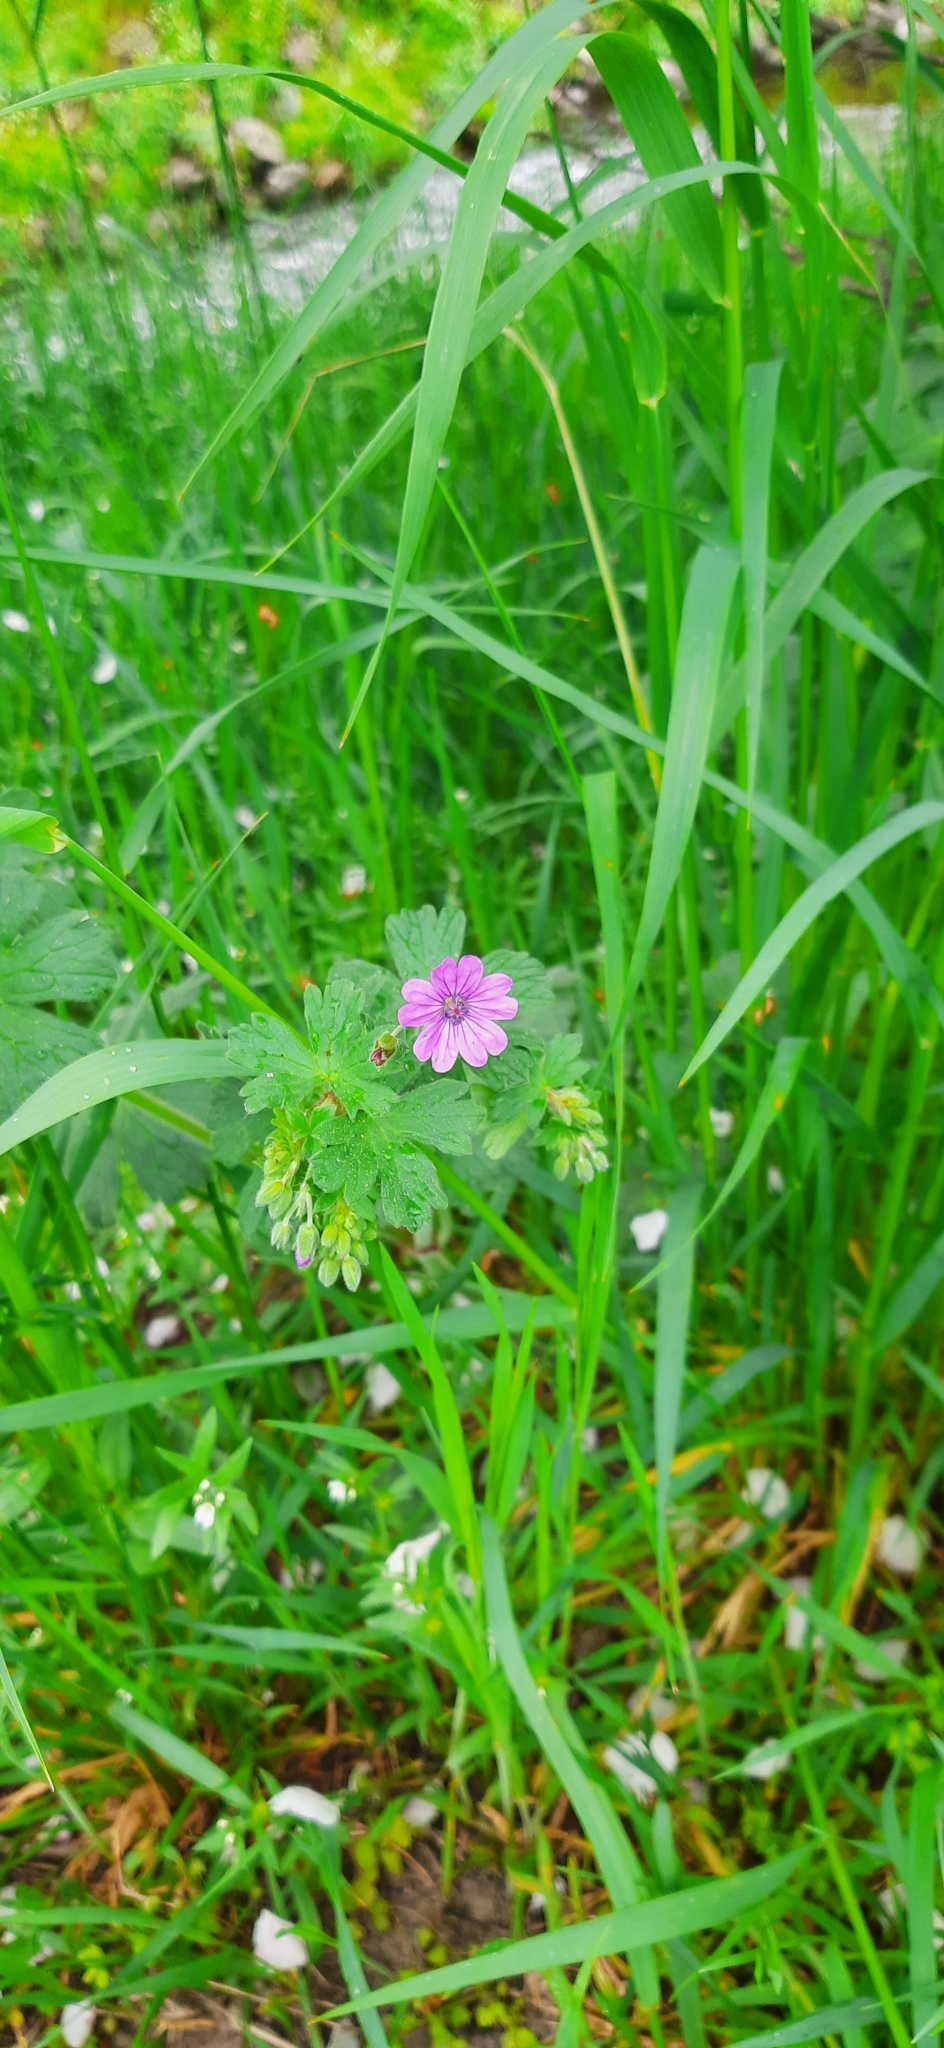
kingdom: Plantae
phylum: Tracheophyta
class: Magnoliopsida
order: Geraniales
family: Geraniaceae
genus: Geranium
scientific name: Geranium pyrenaicum
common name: Hedgerow crane's-bill
